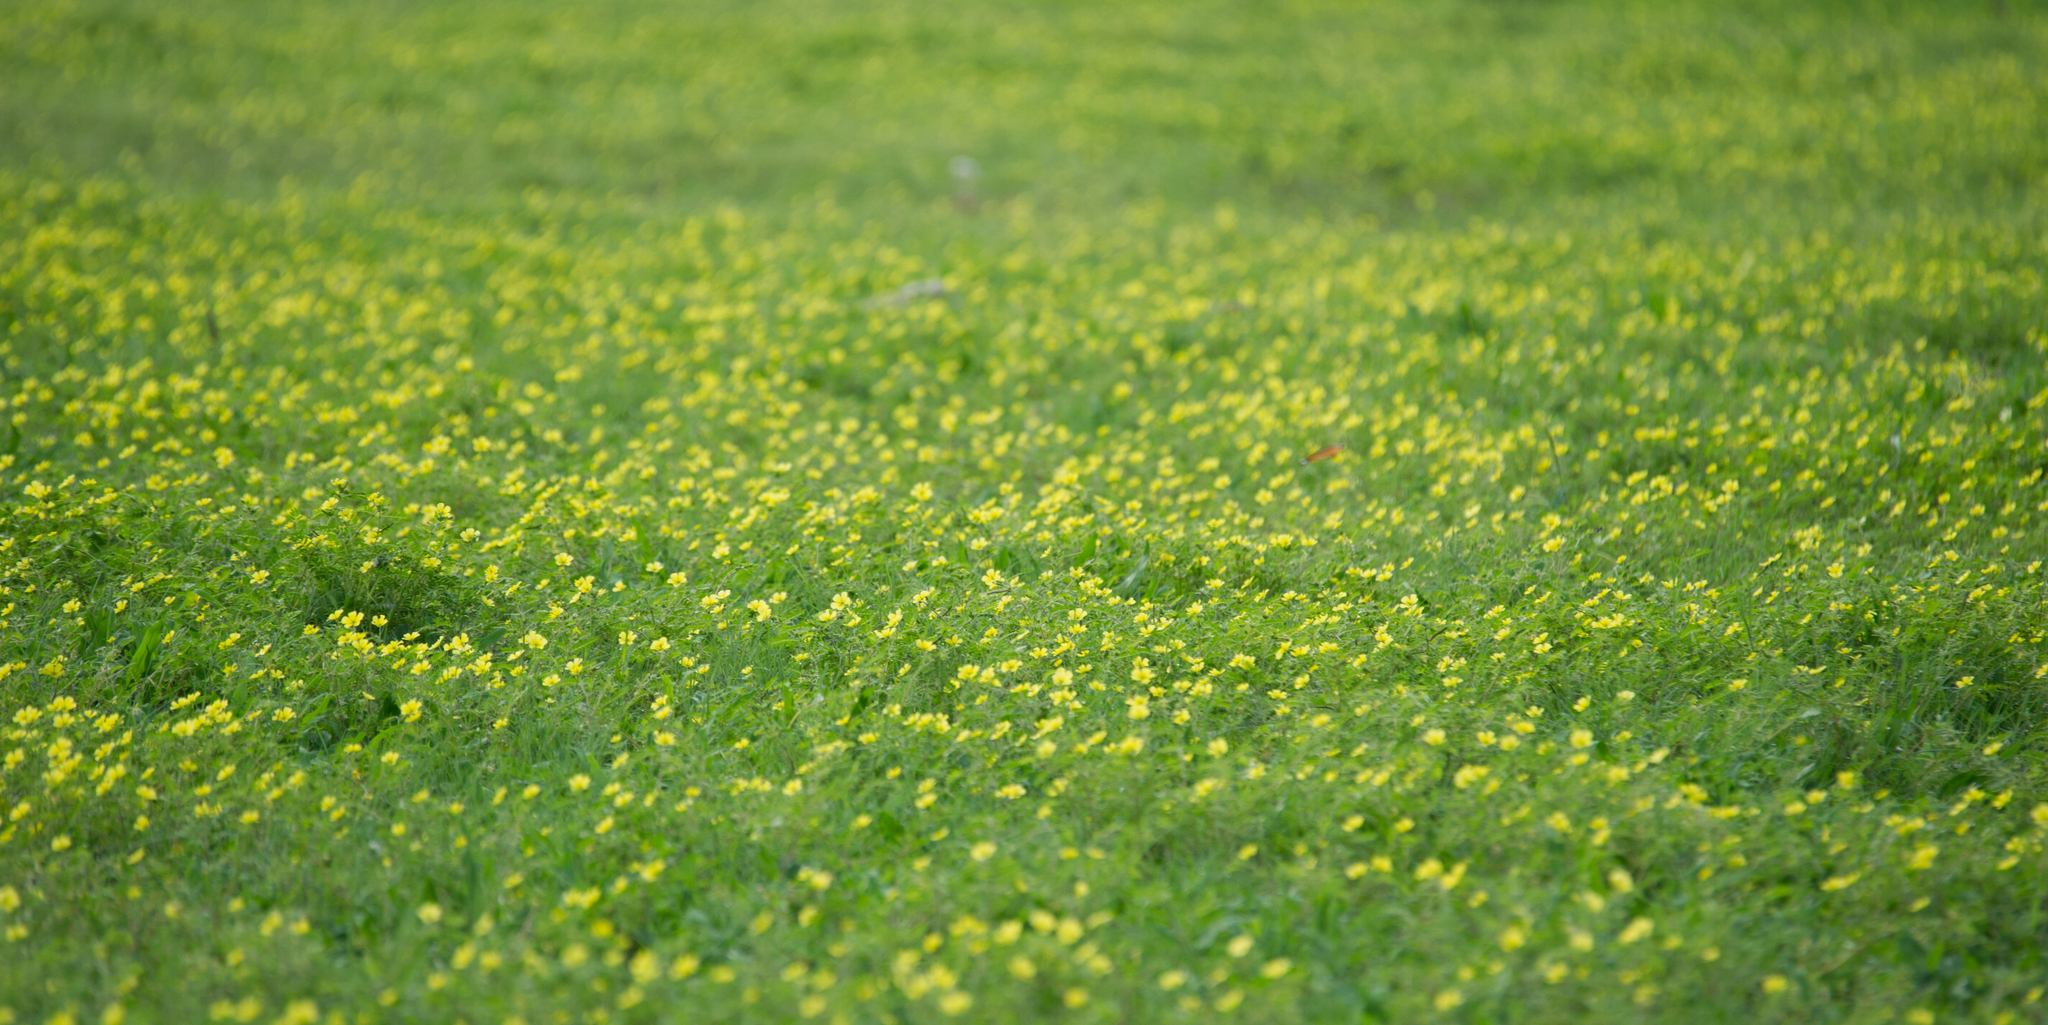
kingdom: Plantae
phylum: Tracheophyta
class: Magnoliopsida
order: Zygophyllales
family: Zygophyllaceae
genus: Tribulus
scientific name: Tribulus terrestris
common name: Puncturevine
